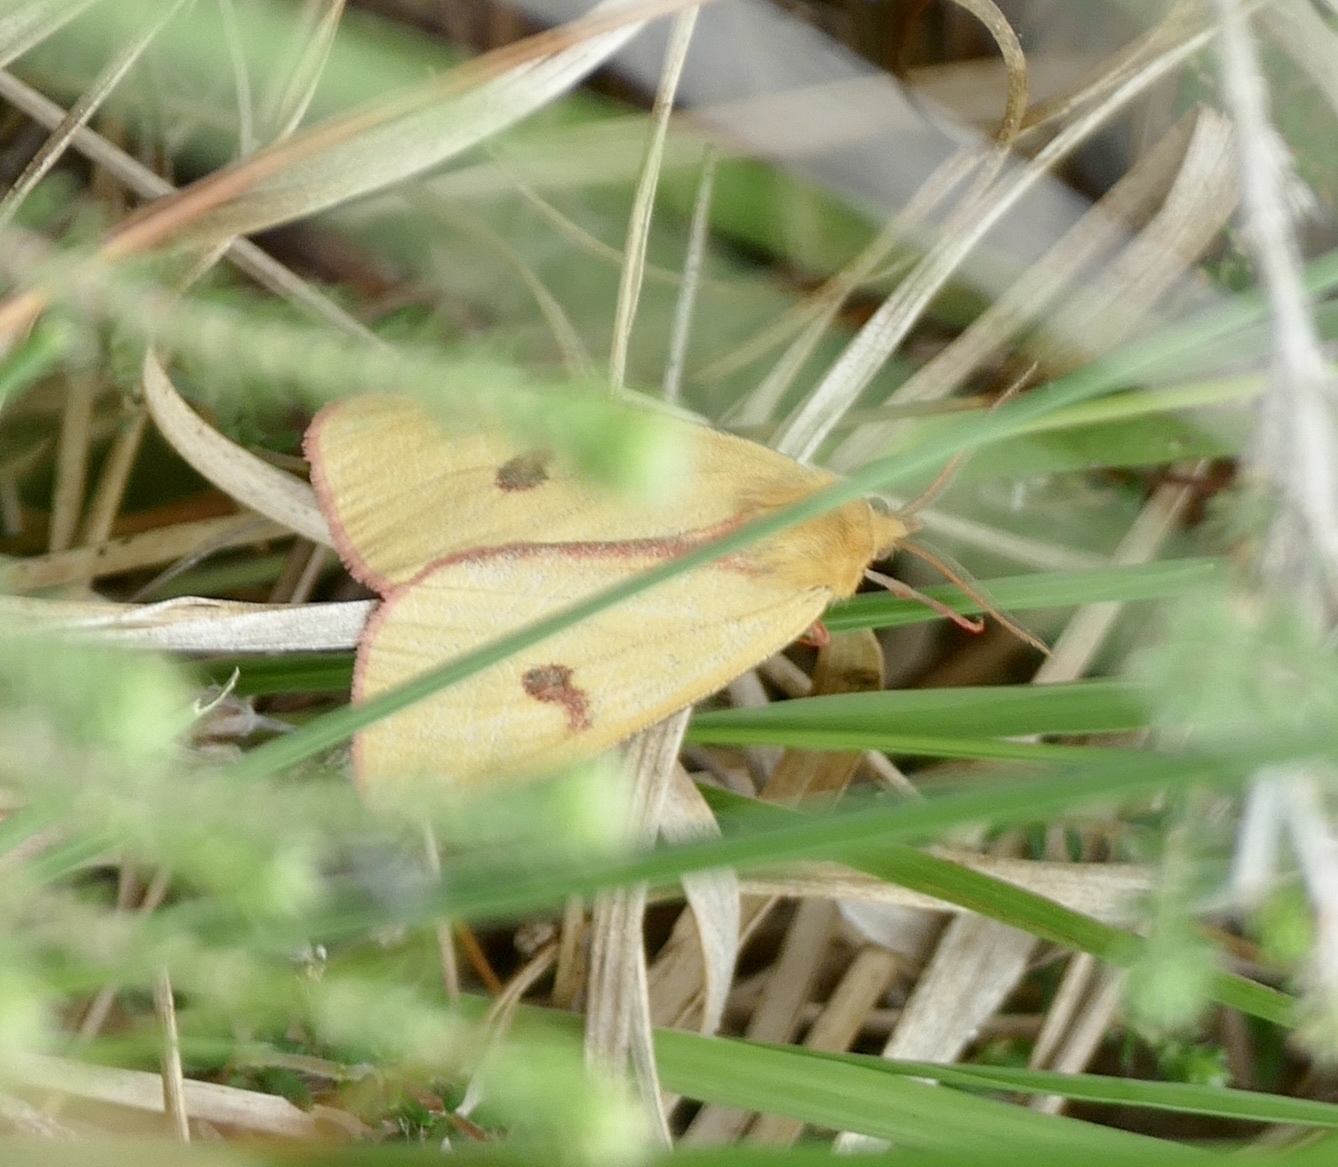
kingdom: Animalia
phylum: Arthropoda
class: Insecta
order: Lepidoptera
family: Erebidae
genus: Diacrisia
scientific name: Diacrisia sannio
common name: Clouded buff
